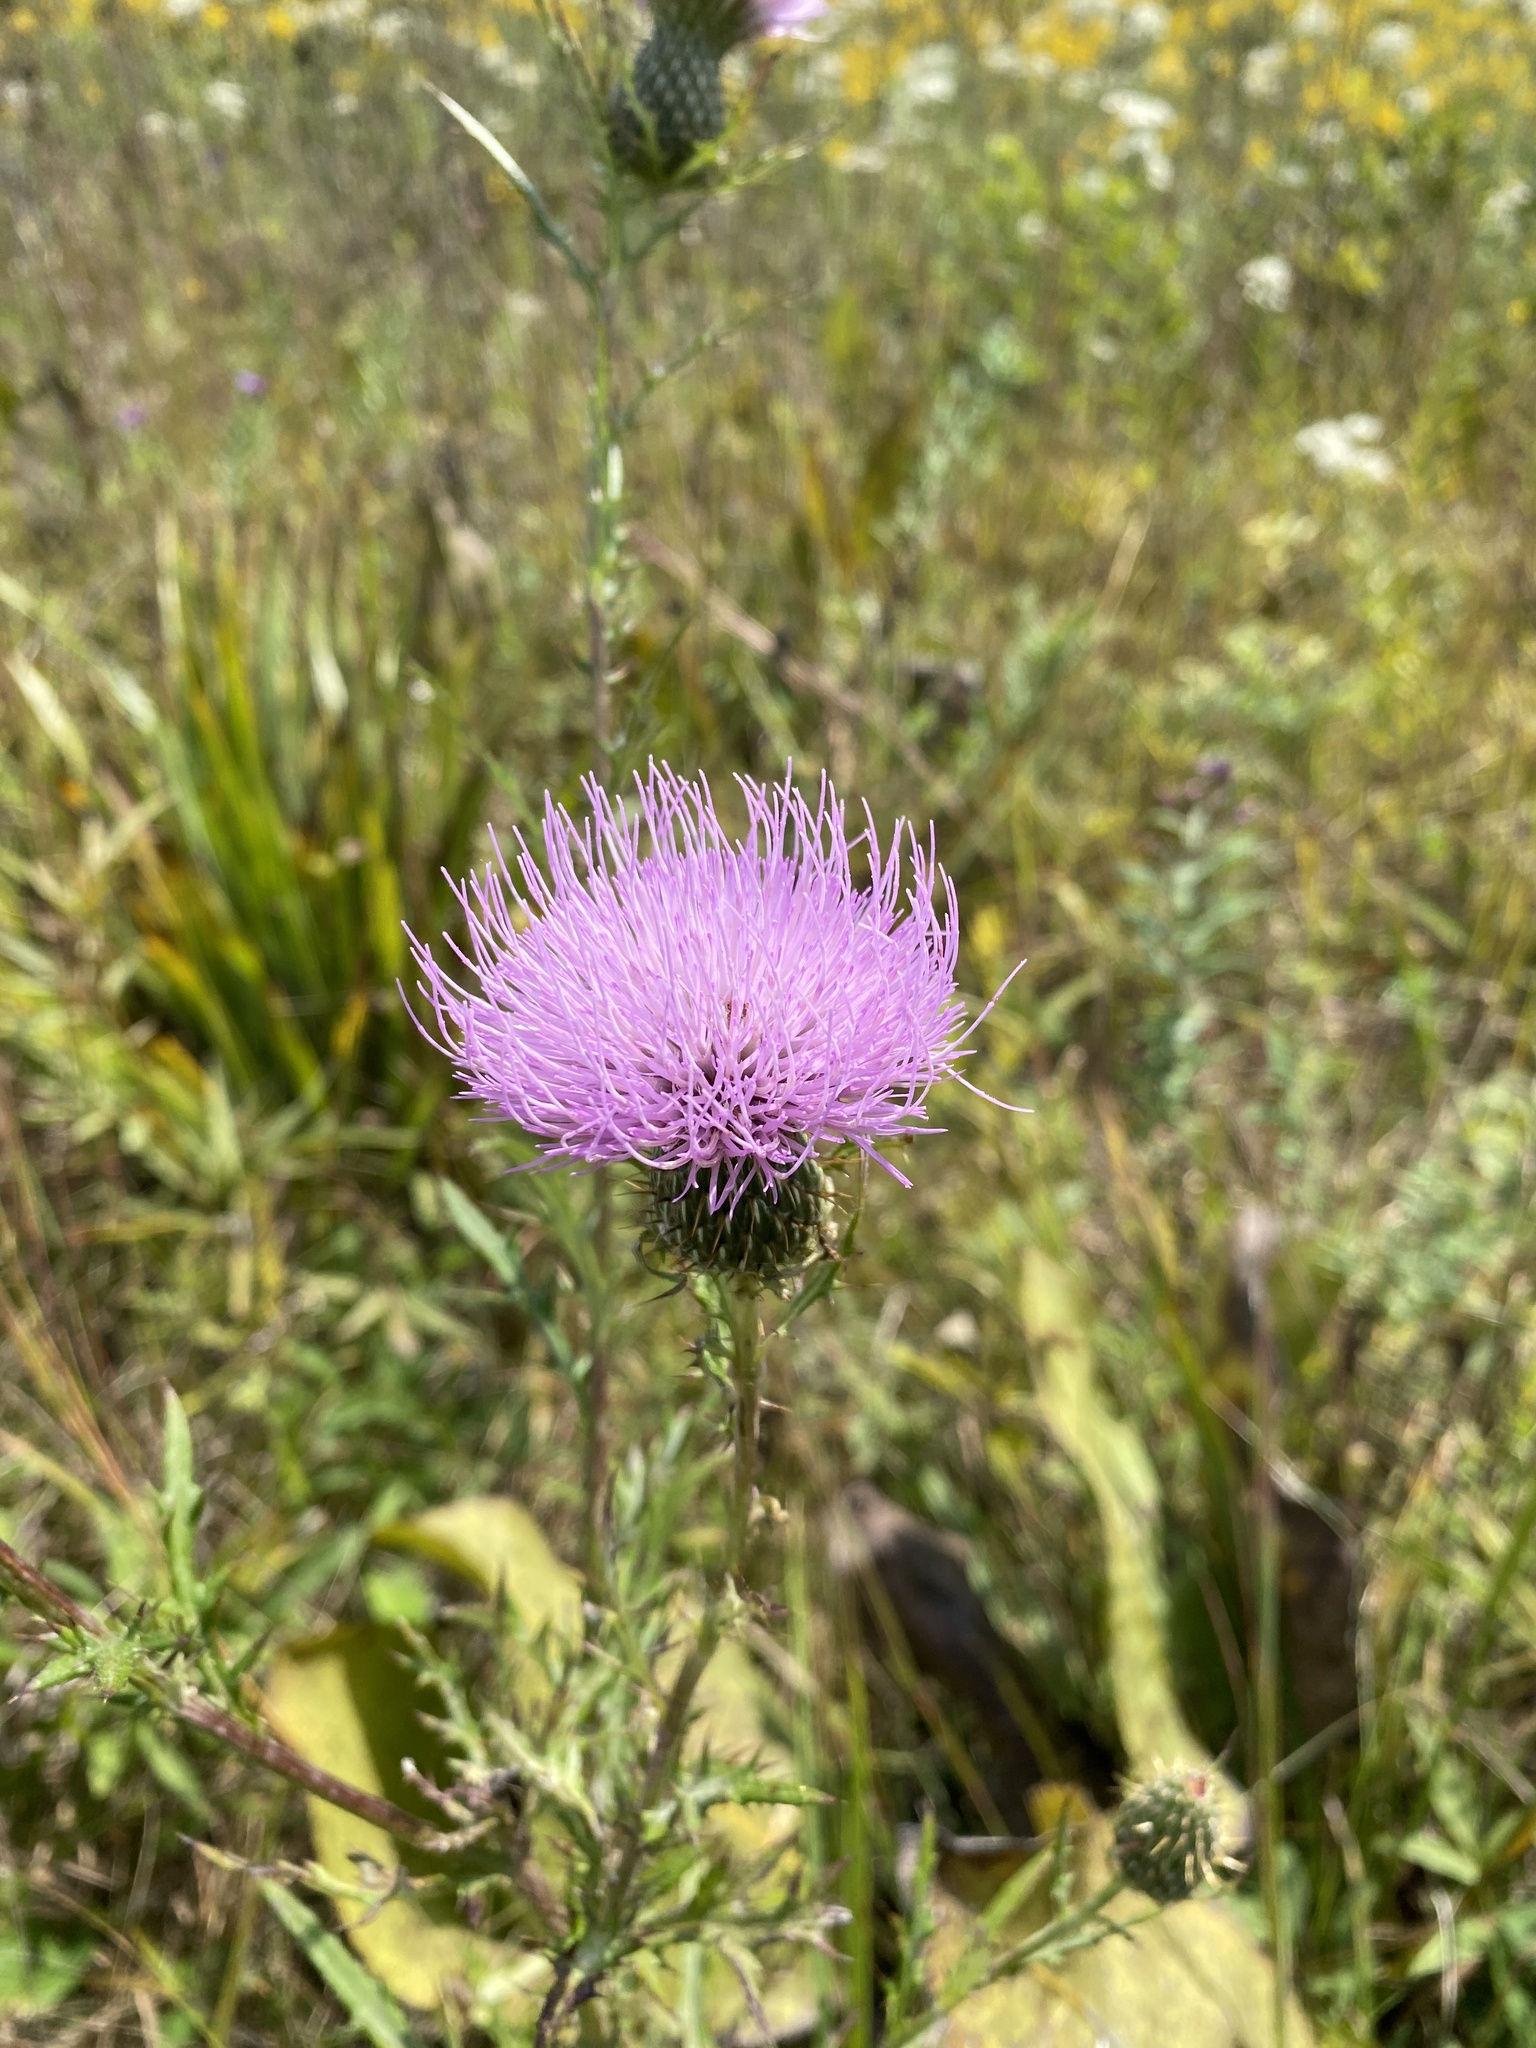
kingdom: Plantae
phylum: Tracheophyta
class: Magnoliopsida
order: Asterales
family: Asteraceae
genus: Cirsium
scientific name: Cirsium discolor
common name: Field thistle
